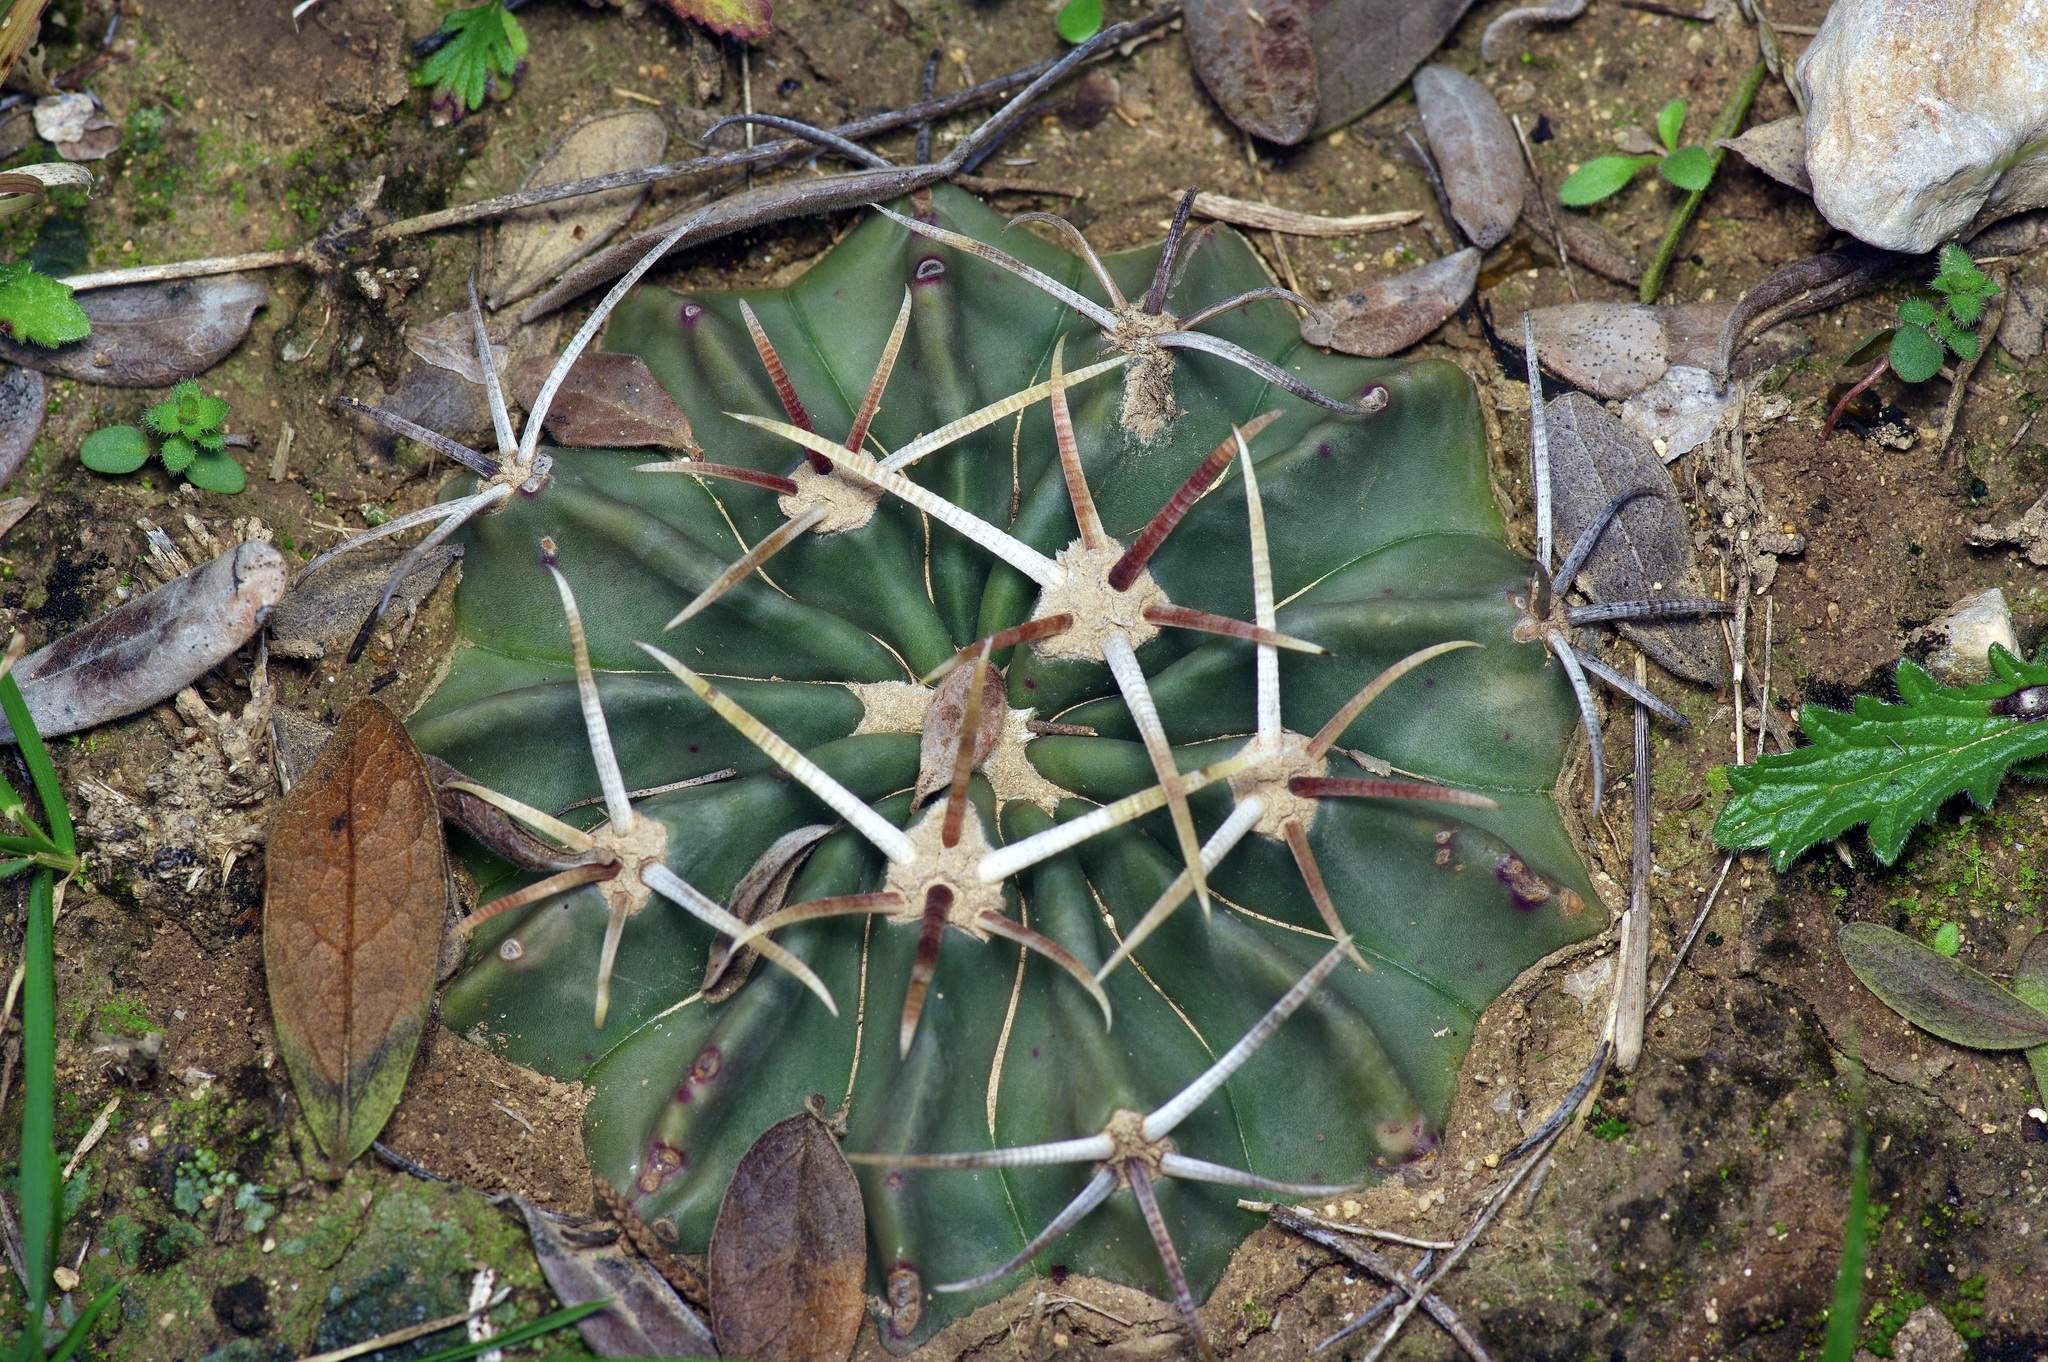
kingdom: Plantae
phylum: Tracheophyta
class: Magnoliopsida
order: Caryophyllales
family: Cactaceae
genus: Echinocactus
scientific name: Echinocactus texensis
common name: Devil's pincushion
